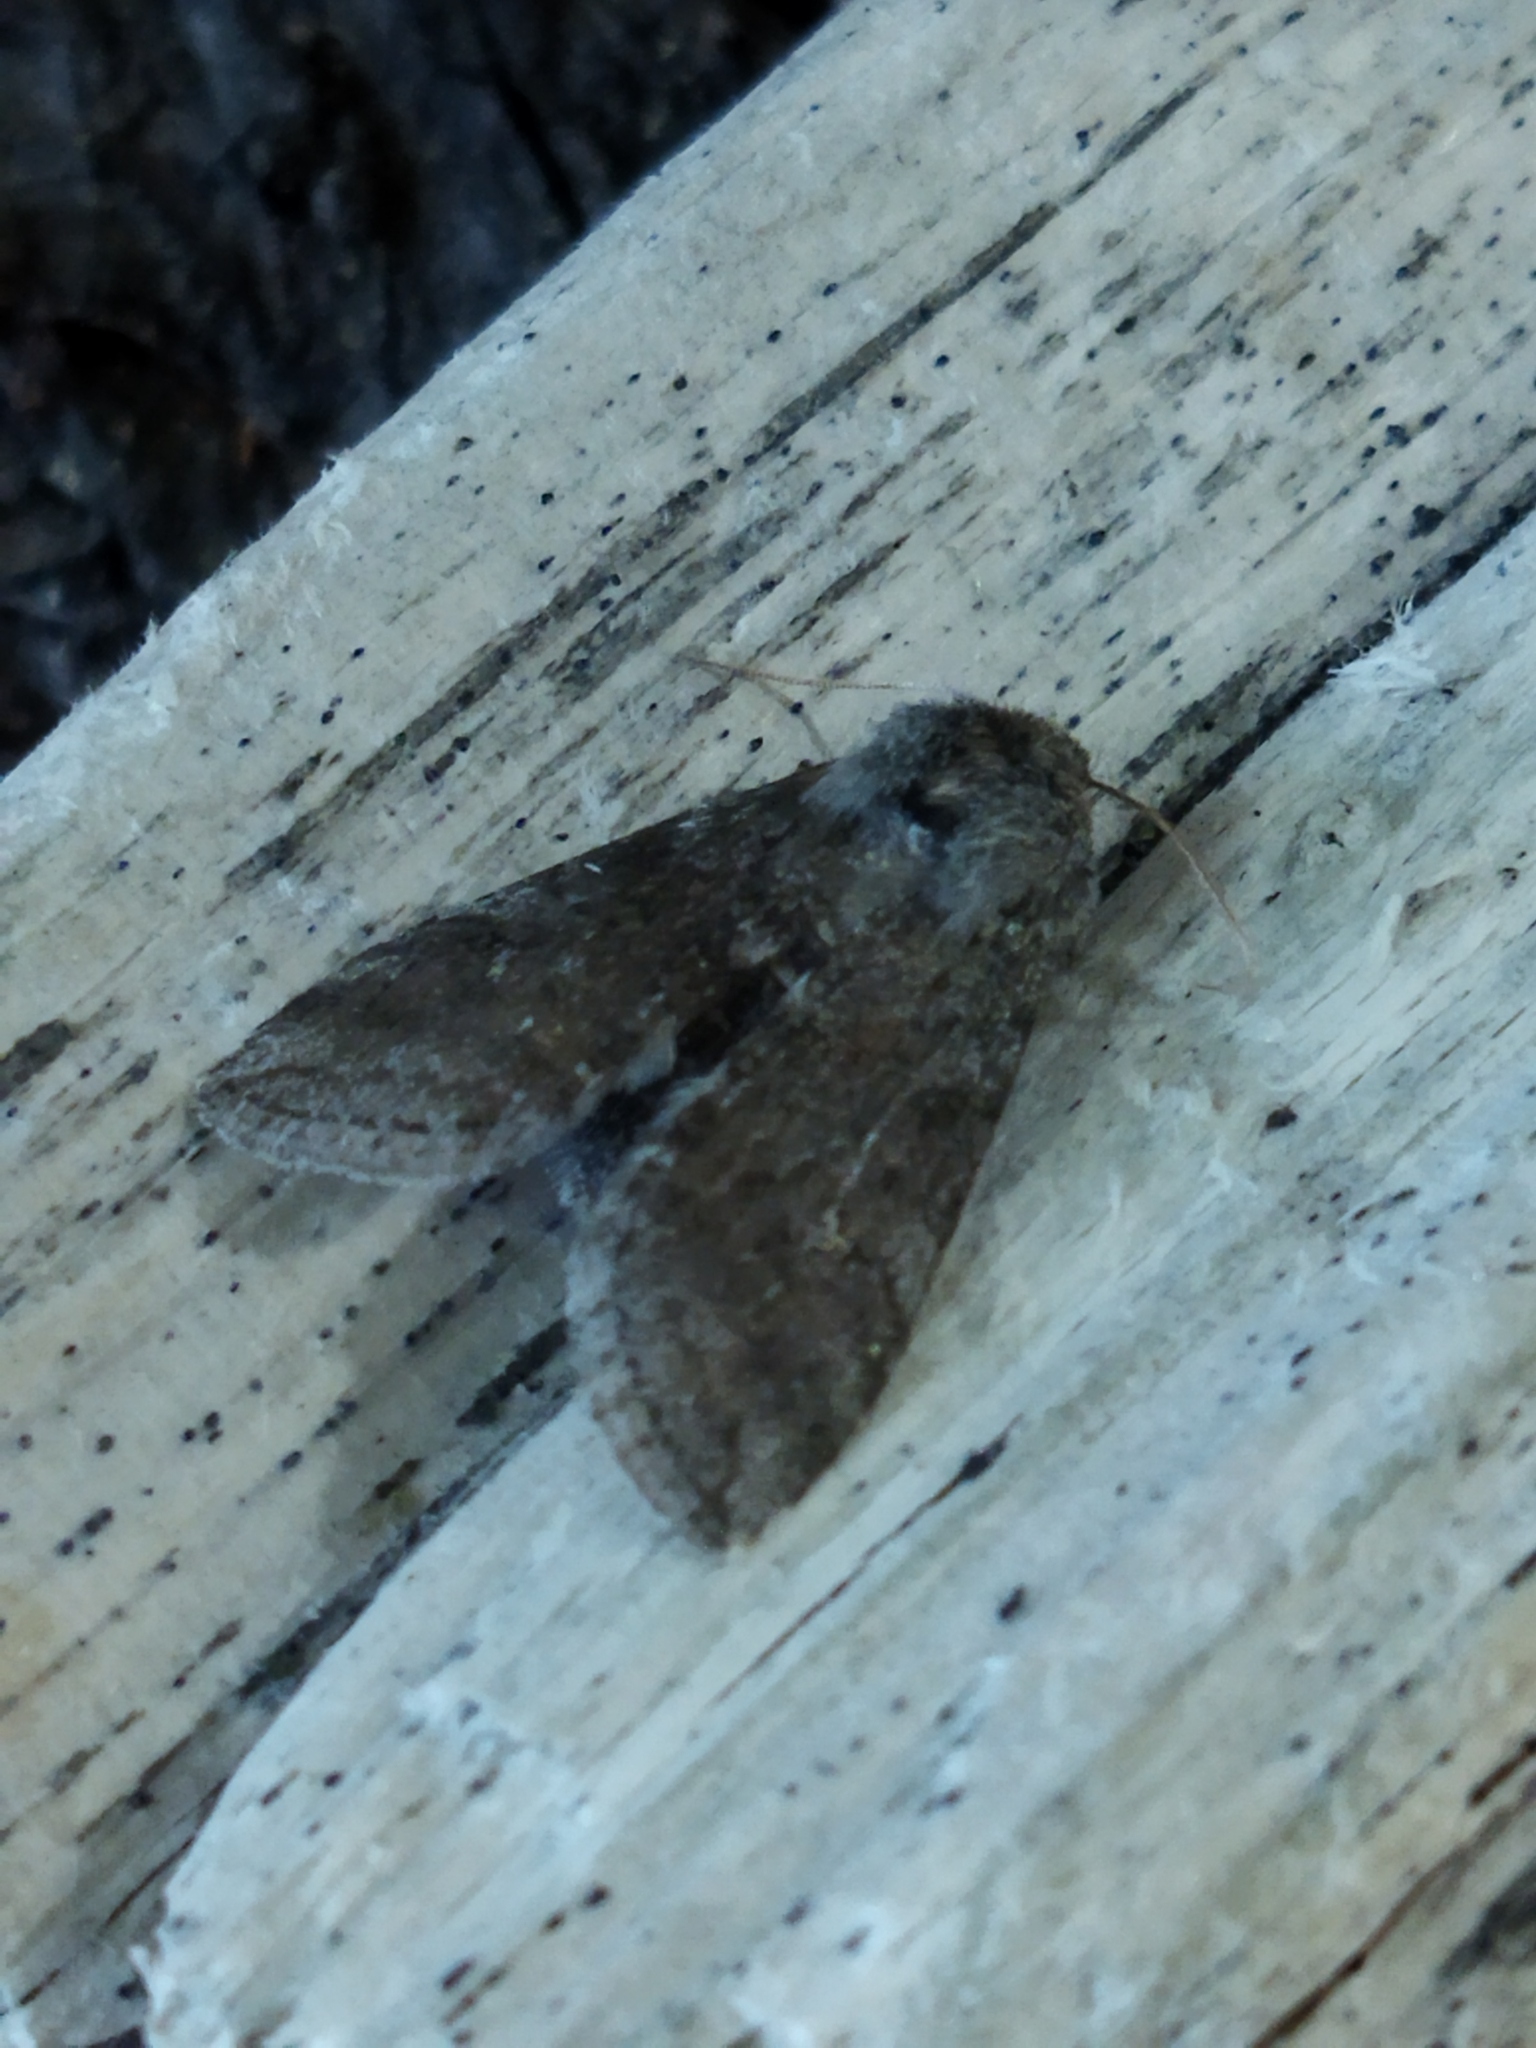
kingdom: Animalia
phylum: Arthropoda
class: Insecta
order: Lepidoptera
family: Drepanidae
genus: Polyploca
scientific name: Polyploca ruficollis
